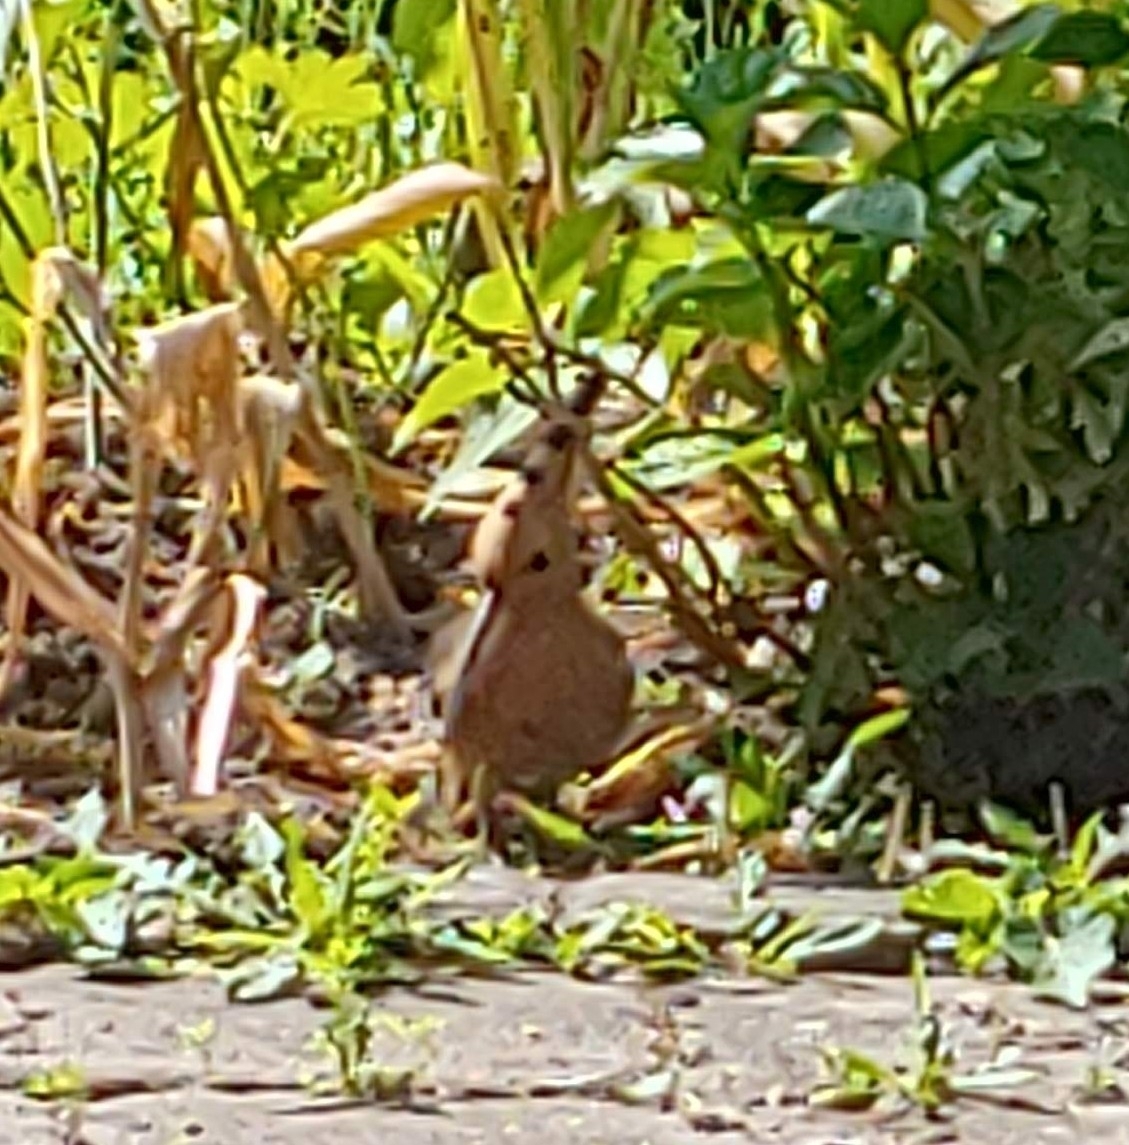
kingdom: Animalia
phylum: Chordata
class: Aves
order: Bucerotiformes
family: Upupidae
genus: Upupa
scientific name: Upupa epops
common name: Eurasian hoopoe
